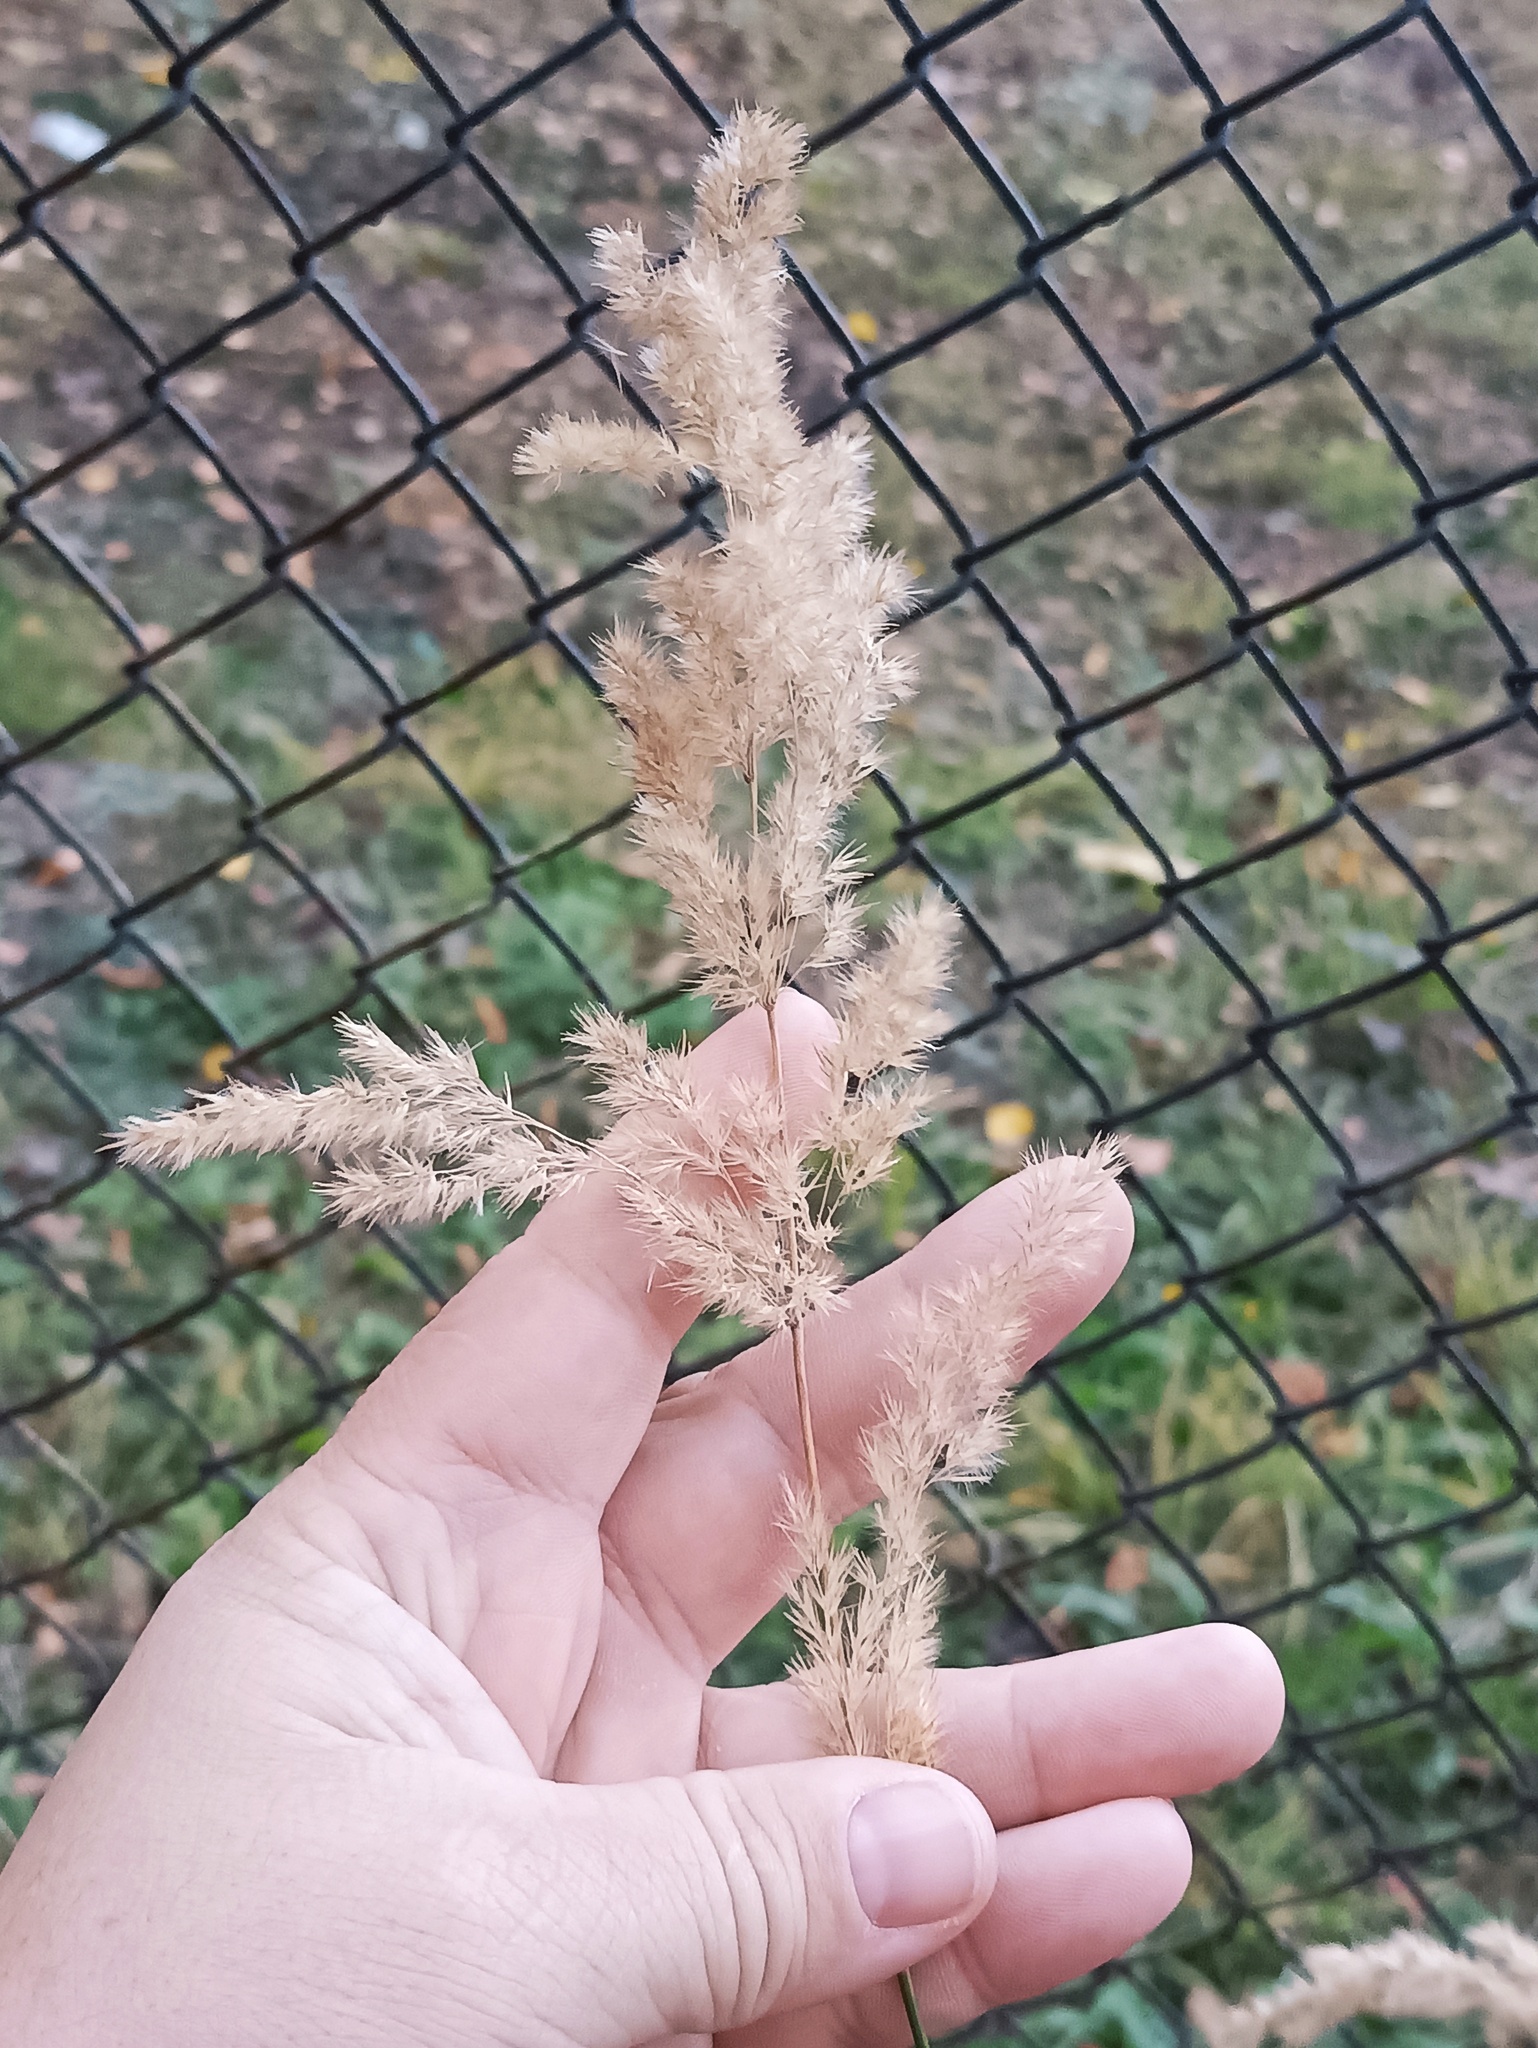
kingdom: Plantae
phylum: Tracheophyta
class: Liliopsida
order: Poales
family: Poaceae
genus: Calamagrostis
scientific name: Calamagrostis epigejos
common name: Wood small-reed
